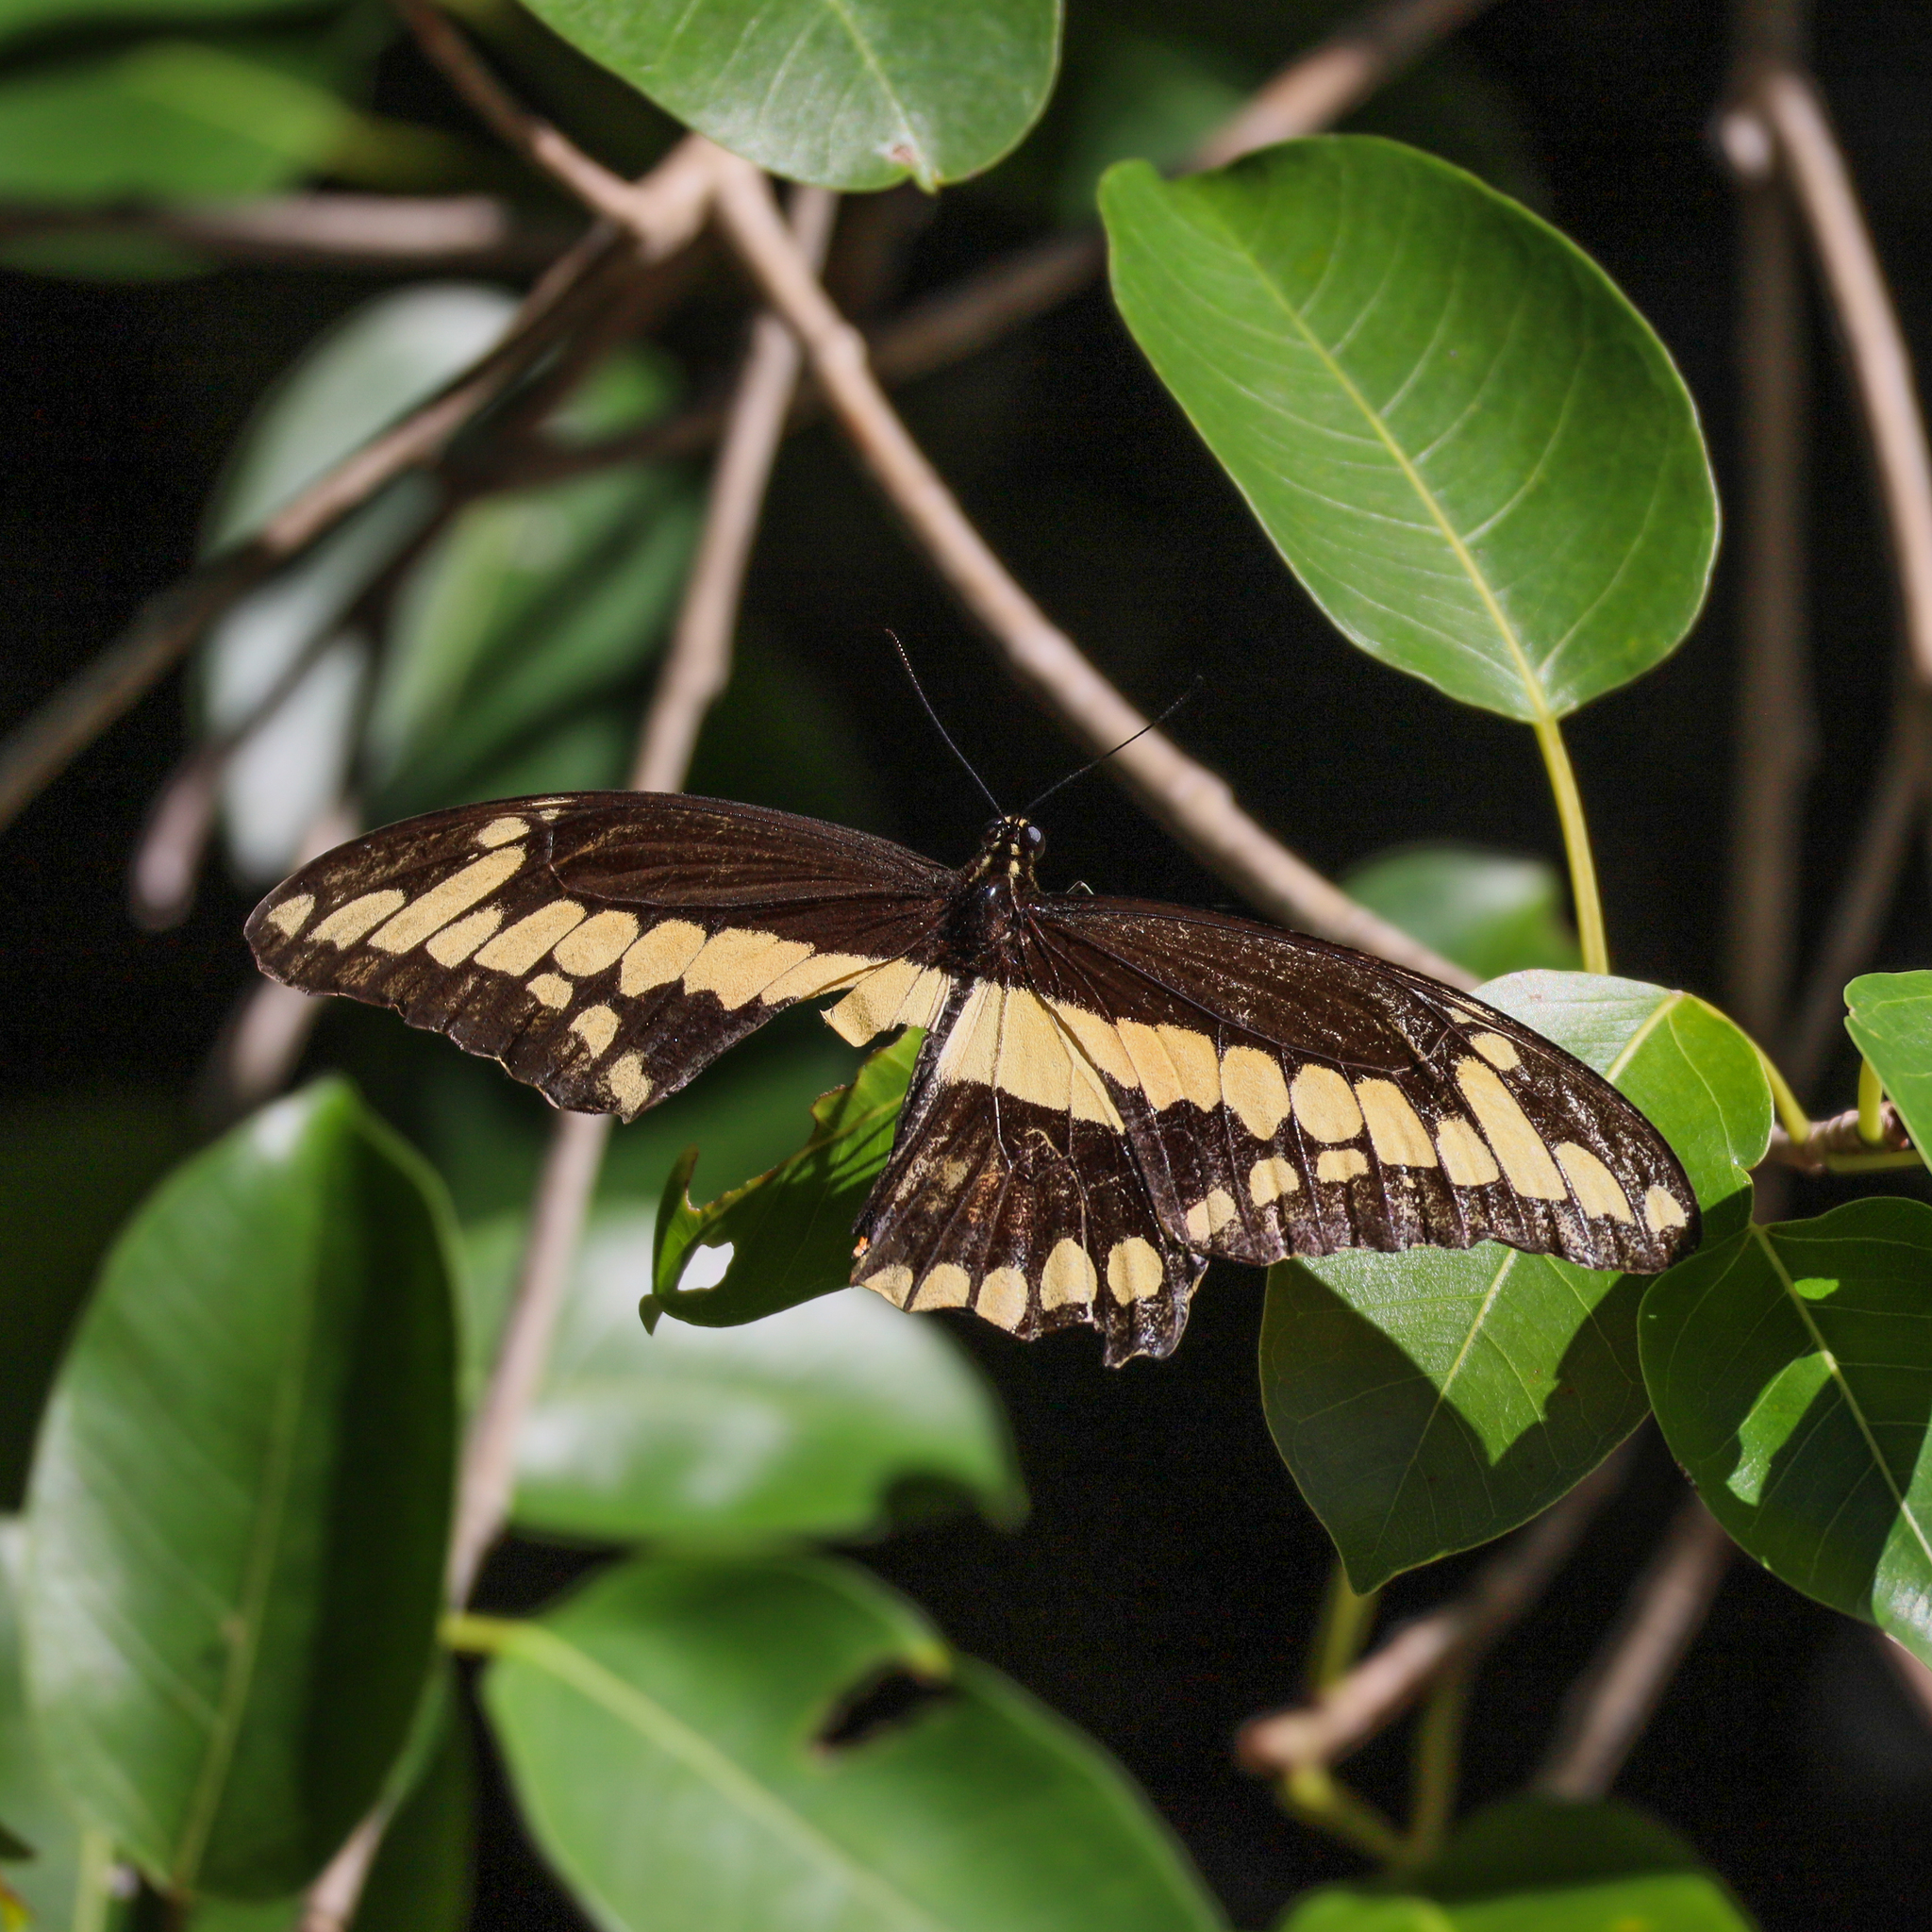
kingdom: Animalia
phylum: Arthropoda
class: Insecta
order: Lepidoptera
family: Papilionidae
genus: Papilio
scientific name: Papilio cresphontes
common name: Giant swallowtail
